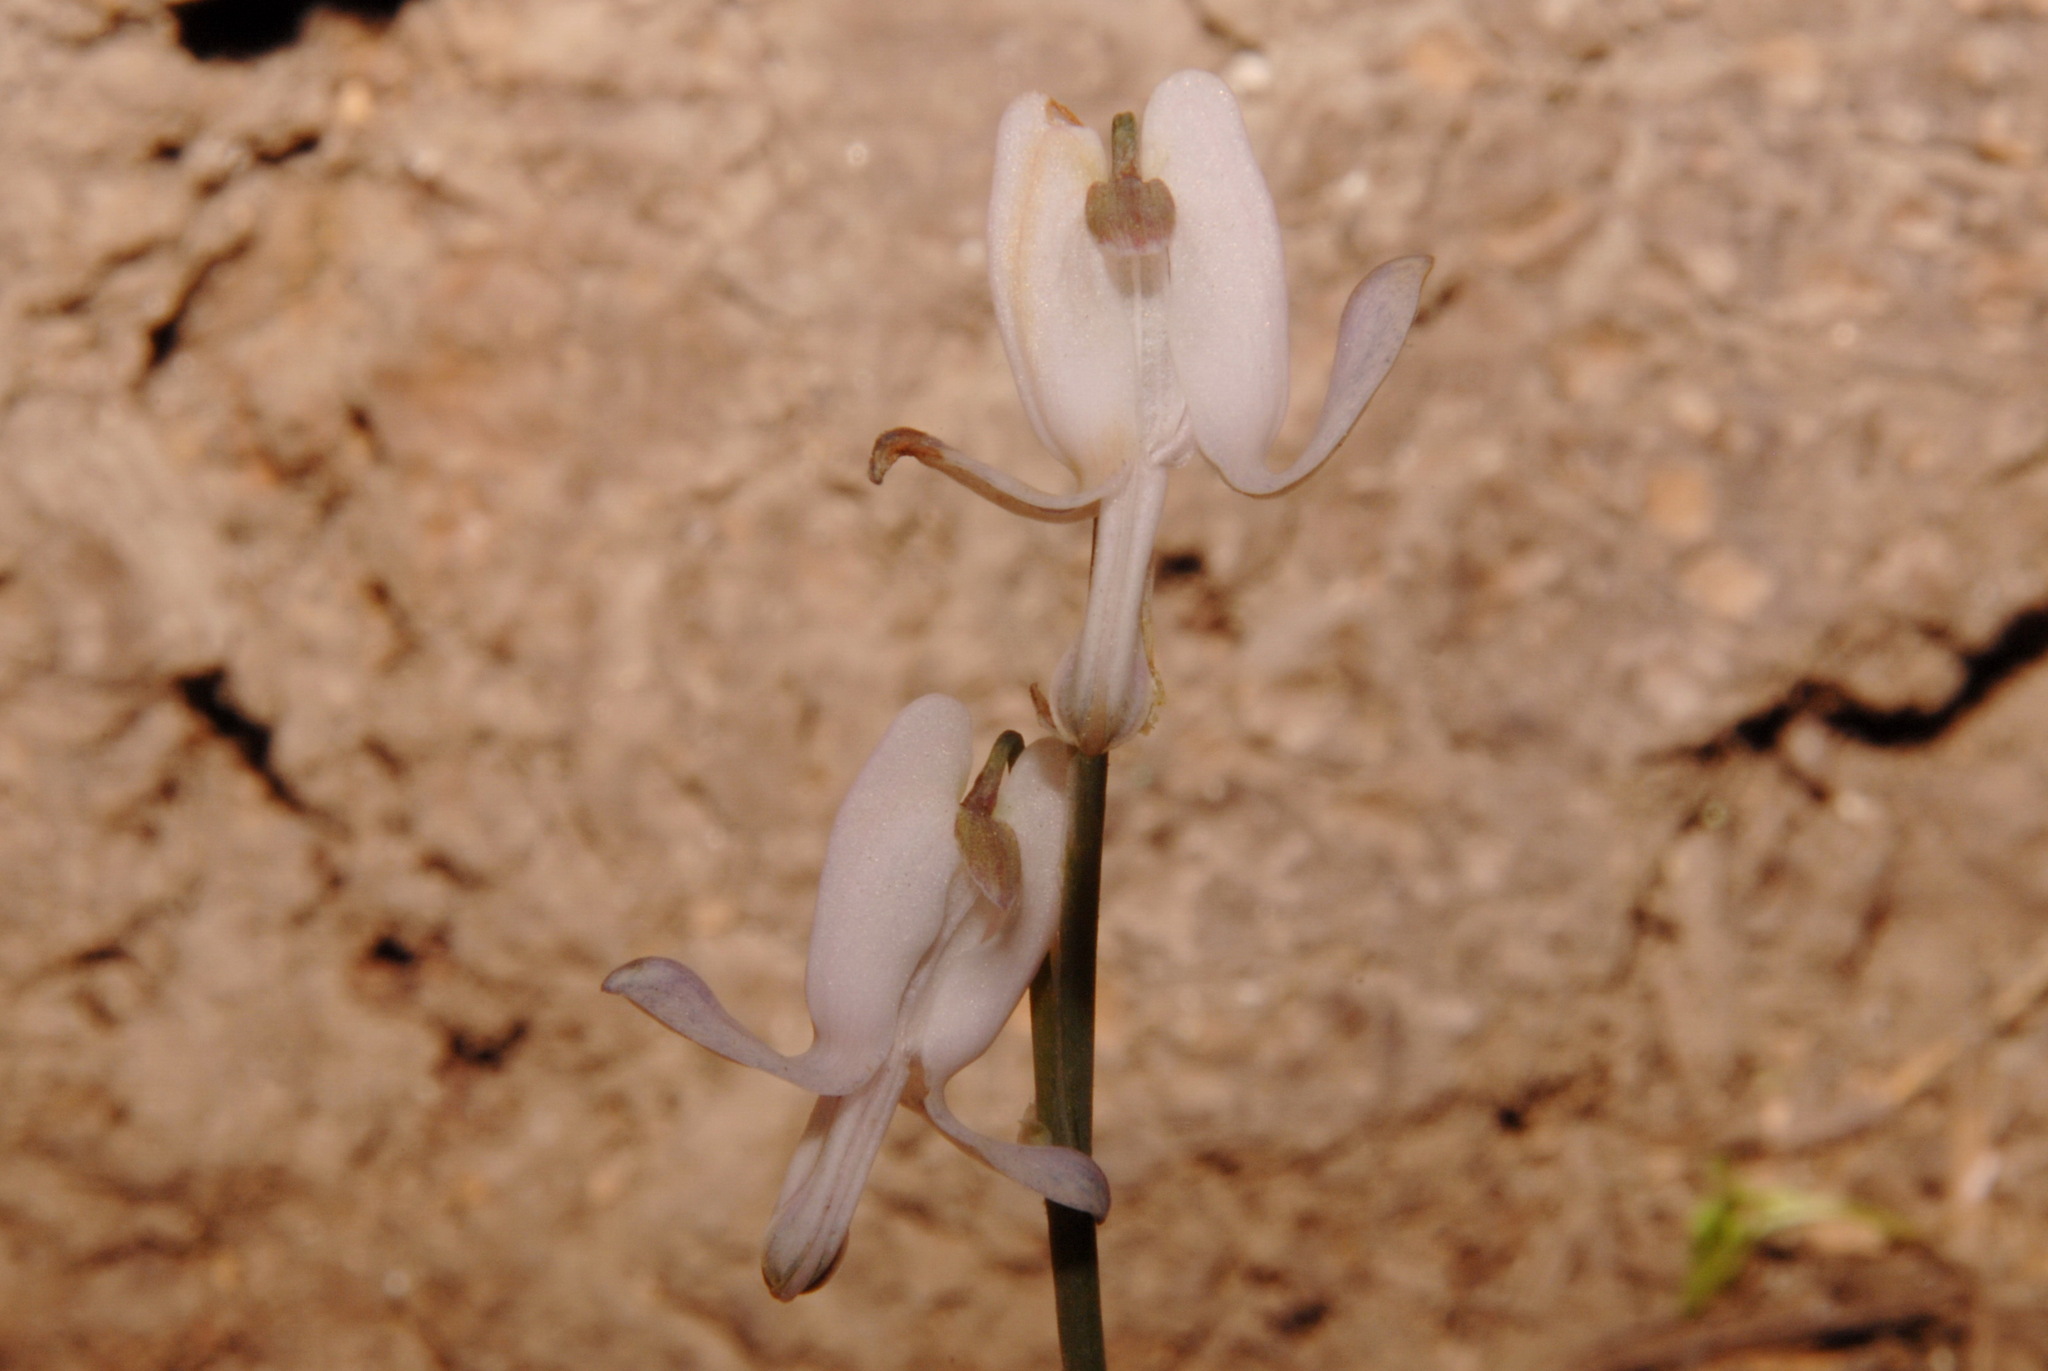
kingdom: Plantae
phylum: Tracheophyta
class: Magnoliopsida
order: Ranunculales
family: Papaveraceae
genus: Dicentra
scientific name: Dicentra pauciflora
